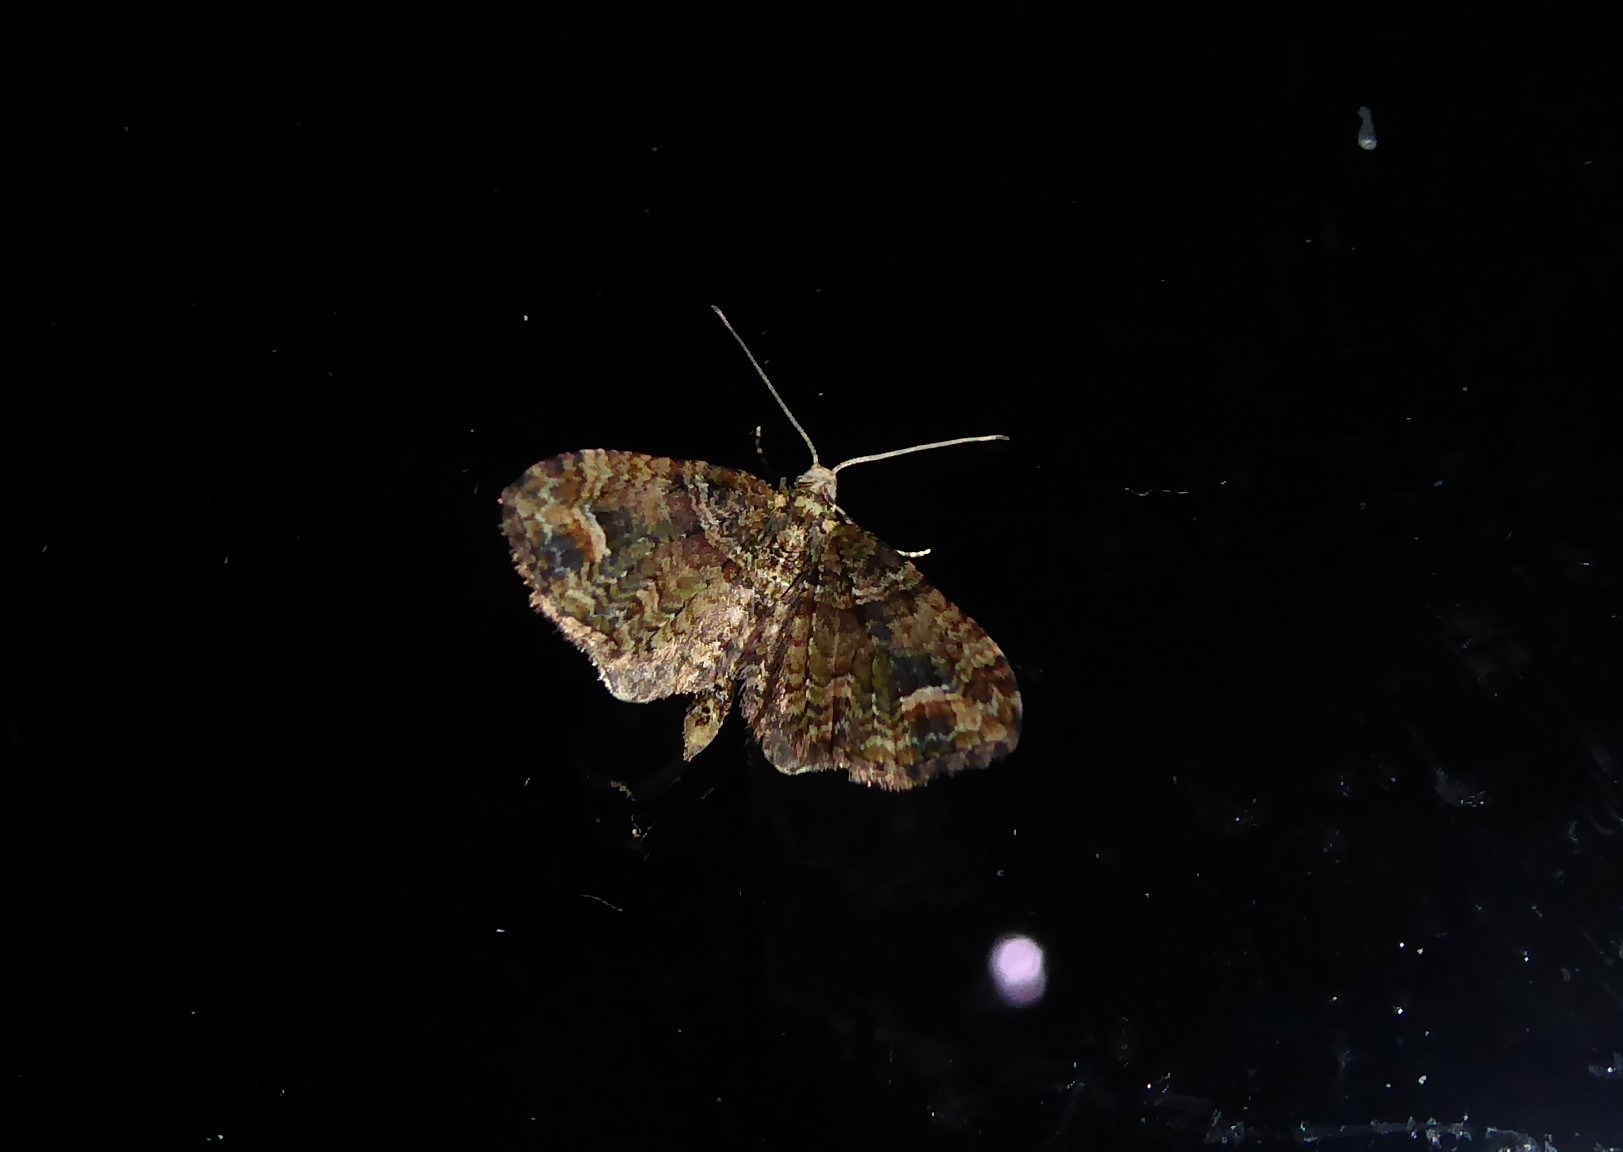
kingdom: Animalia
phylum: Arthropoda
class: Insecta
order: Lepidoptera
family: Geometridae
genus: Idaea
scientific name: Idaea mutanda
